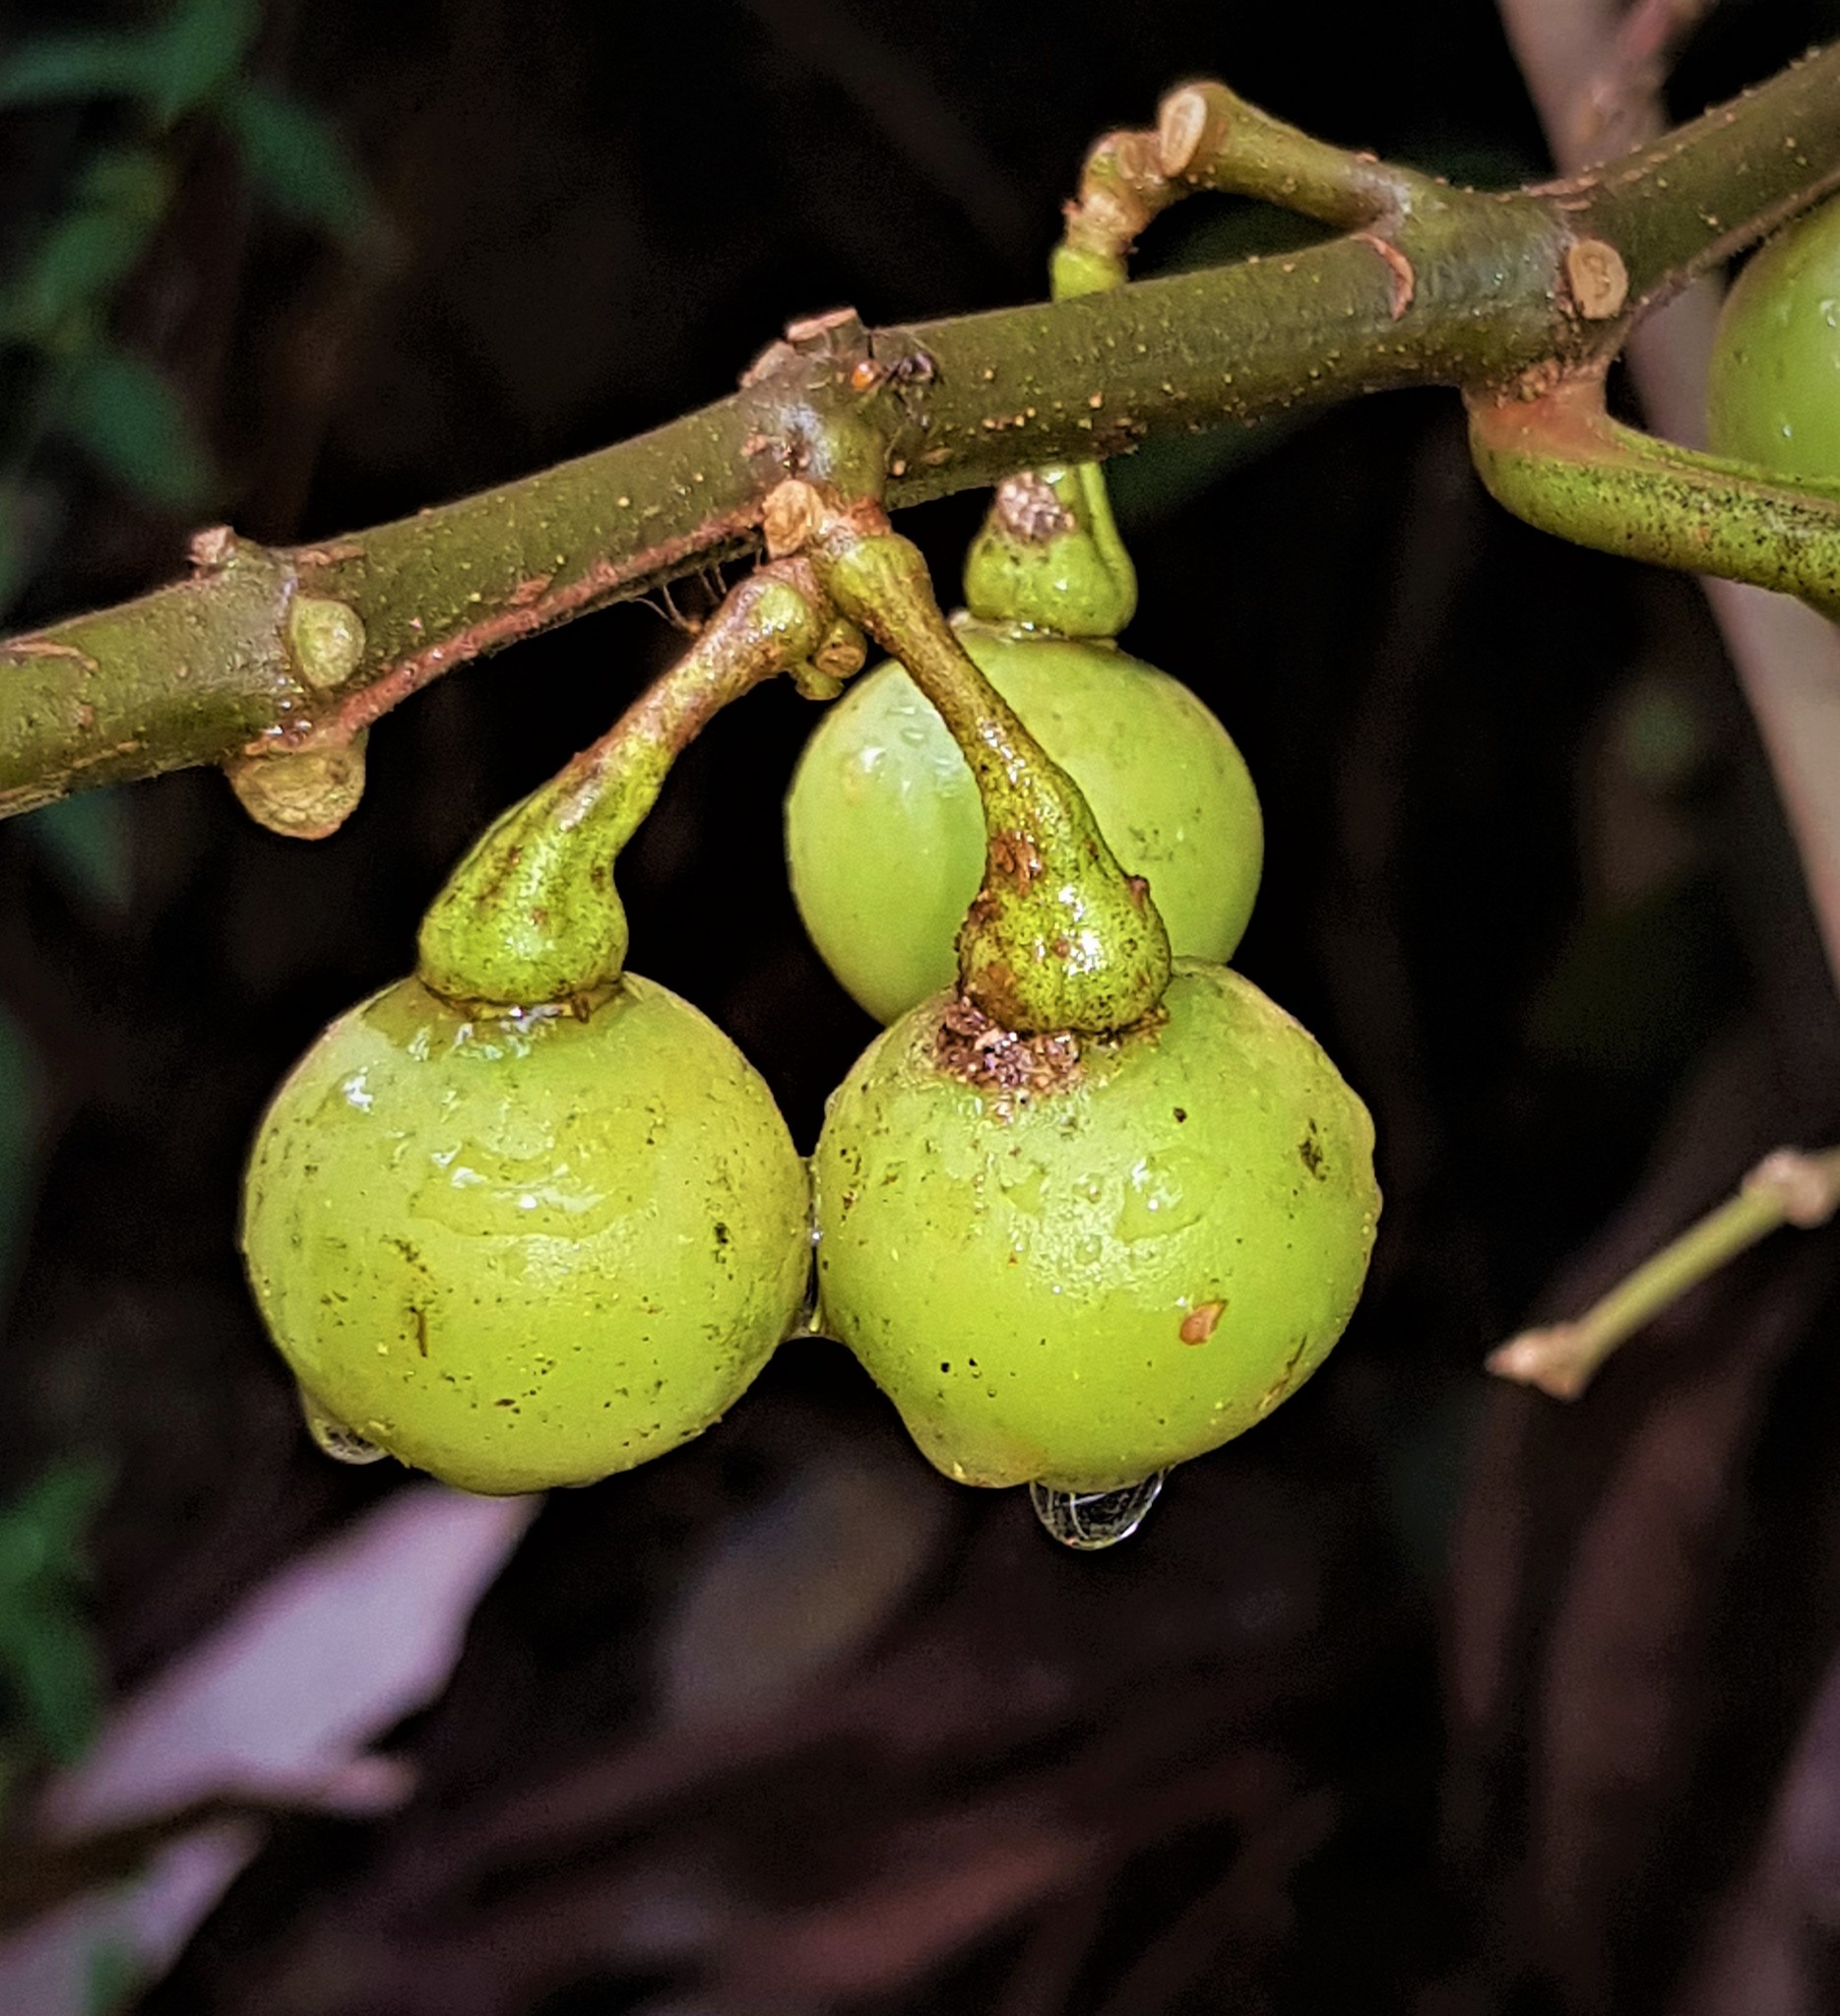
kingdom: Plantae
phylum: Tracheophyta
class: Magnoliopsida
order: Solanales
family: Solanaceae
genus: Solanum
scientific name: Solanum leucocarpon
